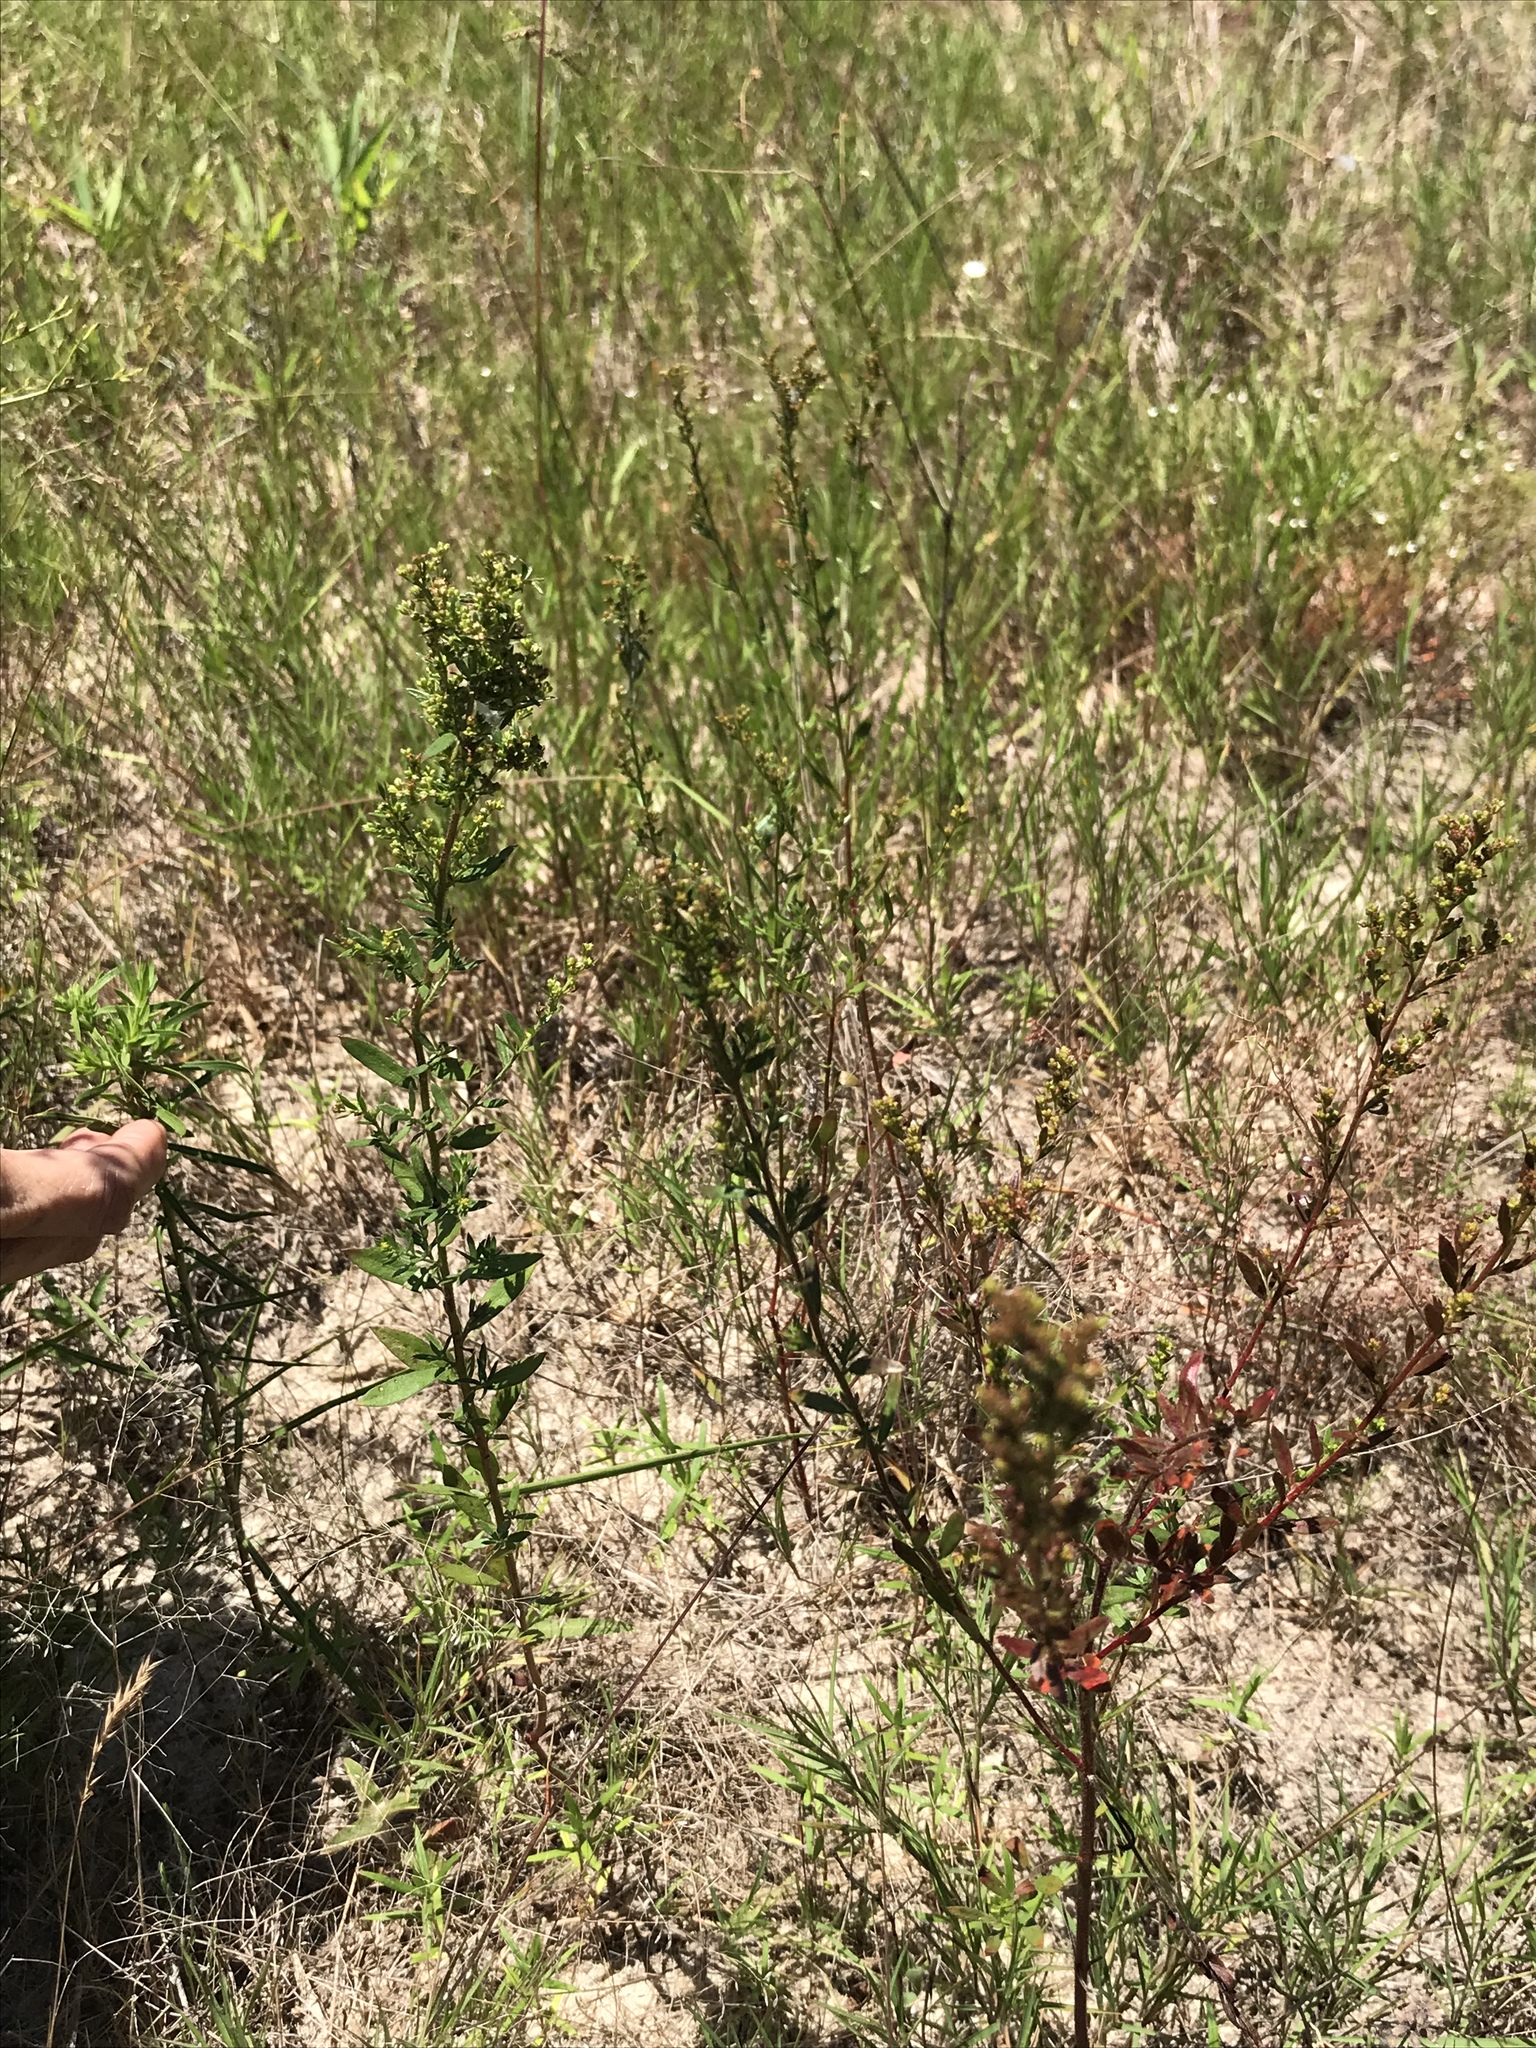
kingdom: Plantae
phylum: Tracheophyta
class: Magnoliopsida
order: Malvales
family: Cistaceae
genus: Lechea
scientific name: Lechea mucronata
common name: Hairy pinweed
